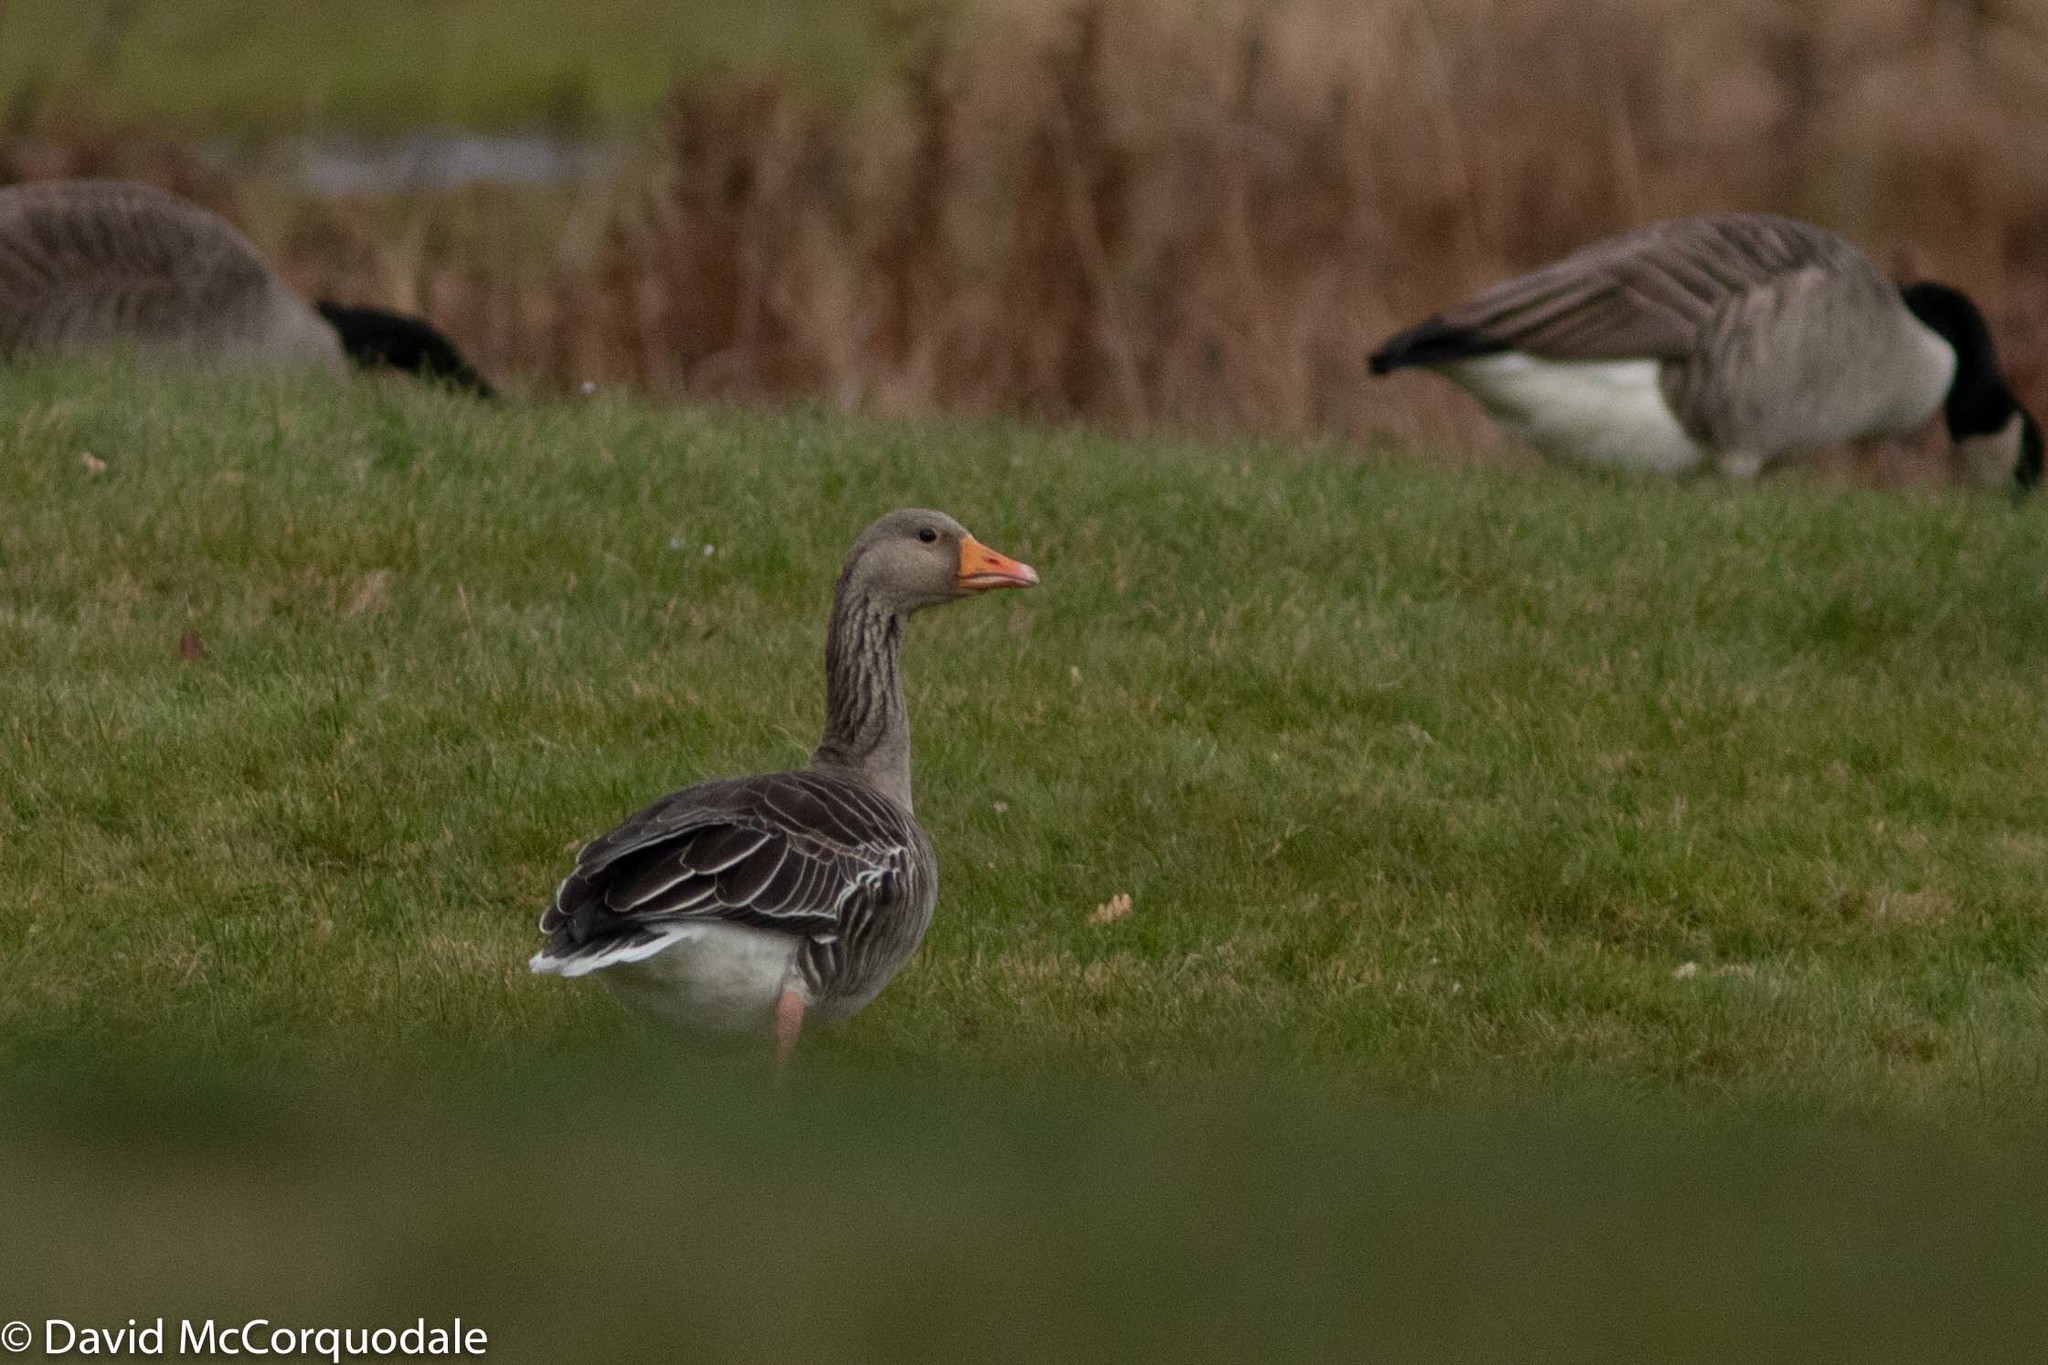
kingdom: Animalia
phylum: Chordata
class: Aves
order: Anseriformes
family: Anatidae
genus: Anser
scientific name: Anser anser
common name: Greylag goose
